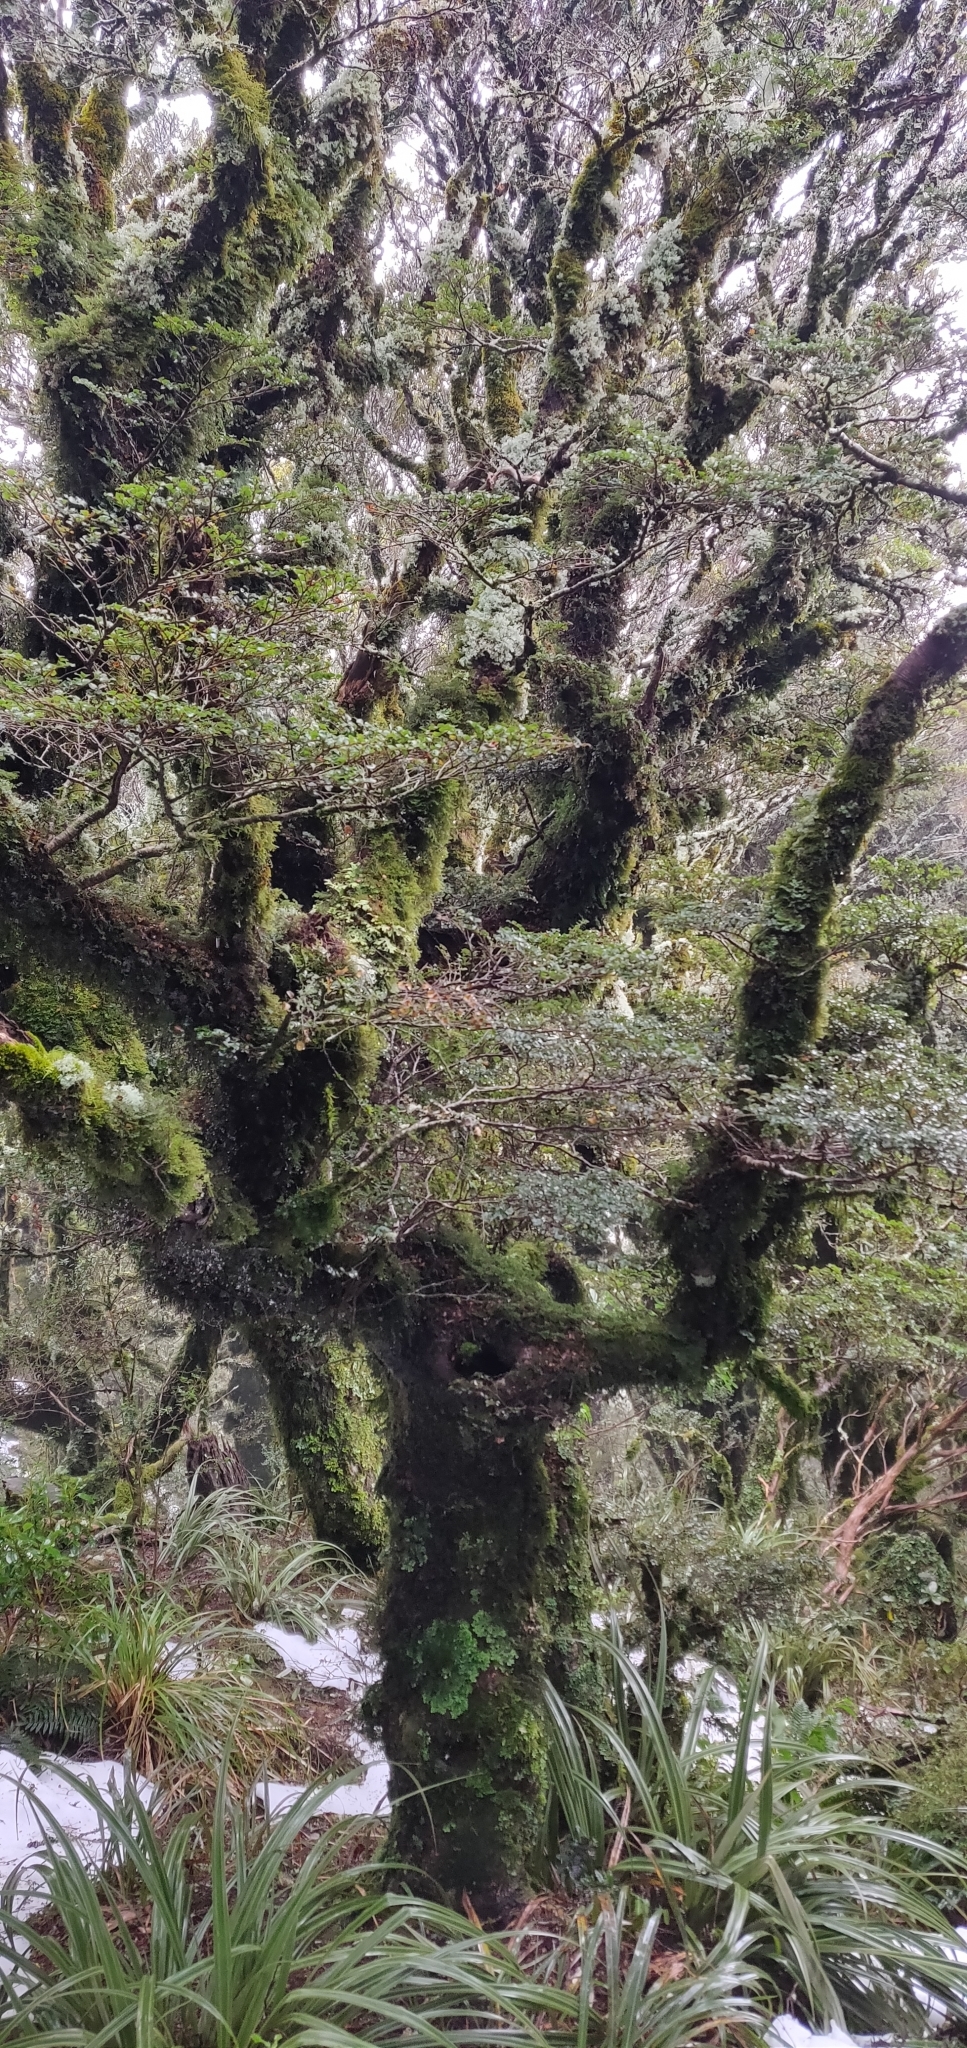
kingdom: Plantae
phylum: Tracheophyta
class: Magnoliopsida
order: Fagales
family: Nothofagaceae
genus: Nothofagus
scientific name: Nothofagus menziesii
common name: Silver beech
